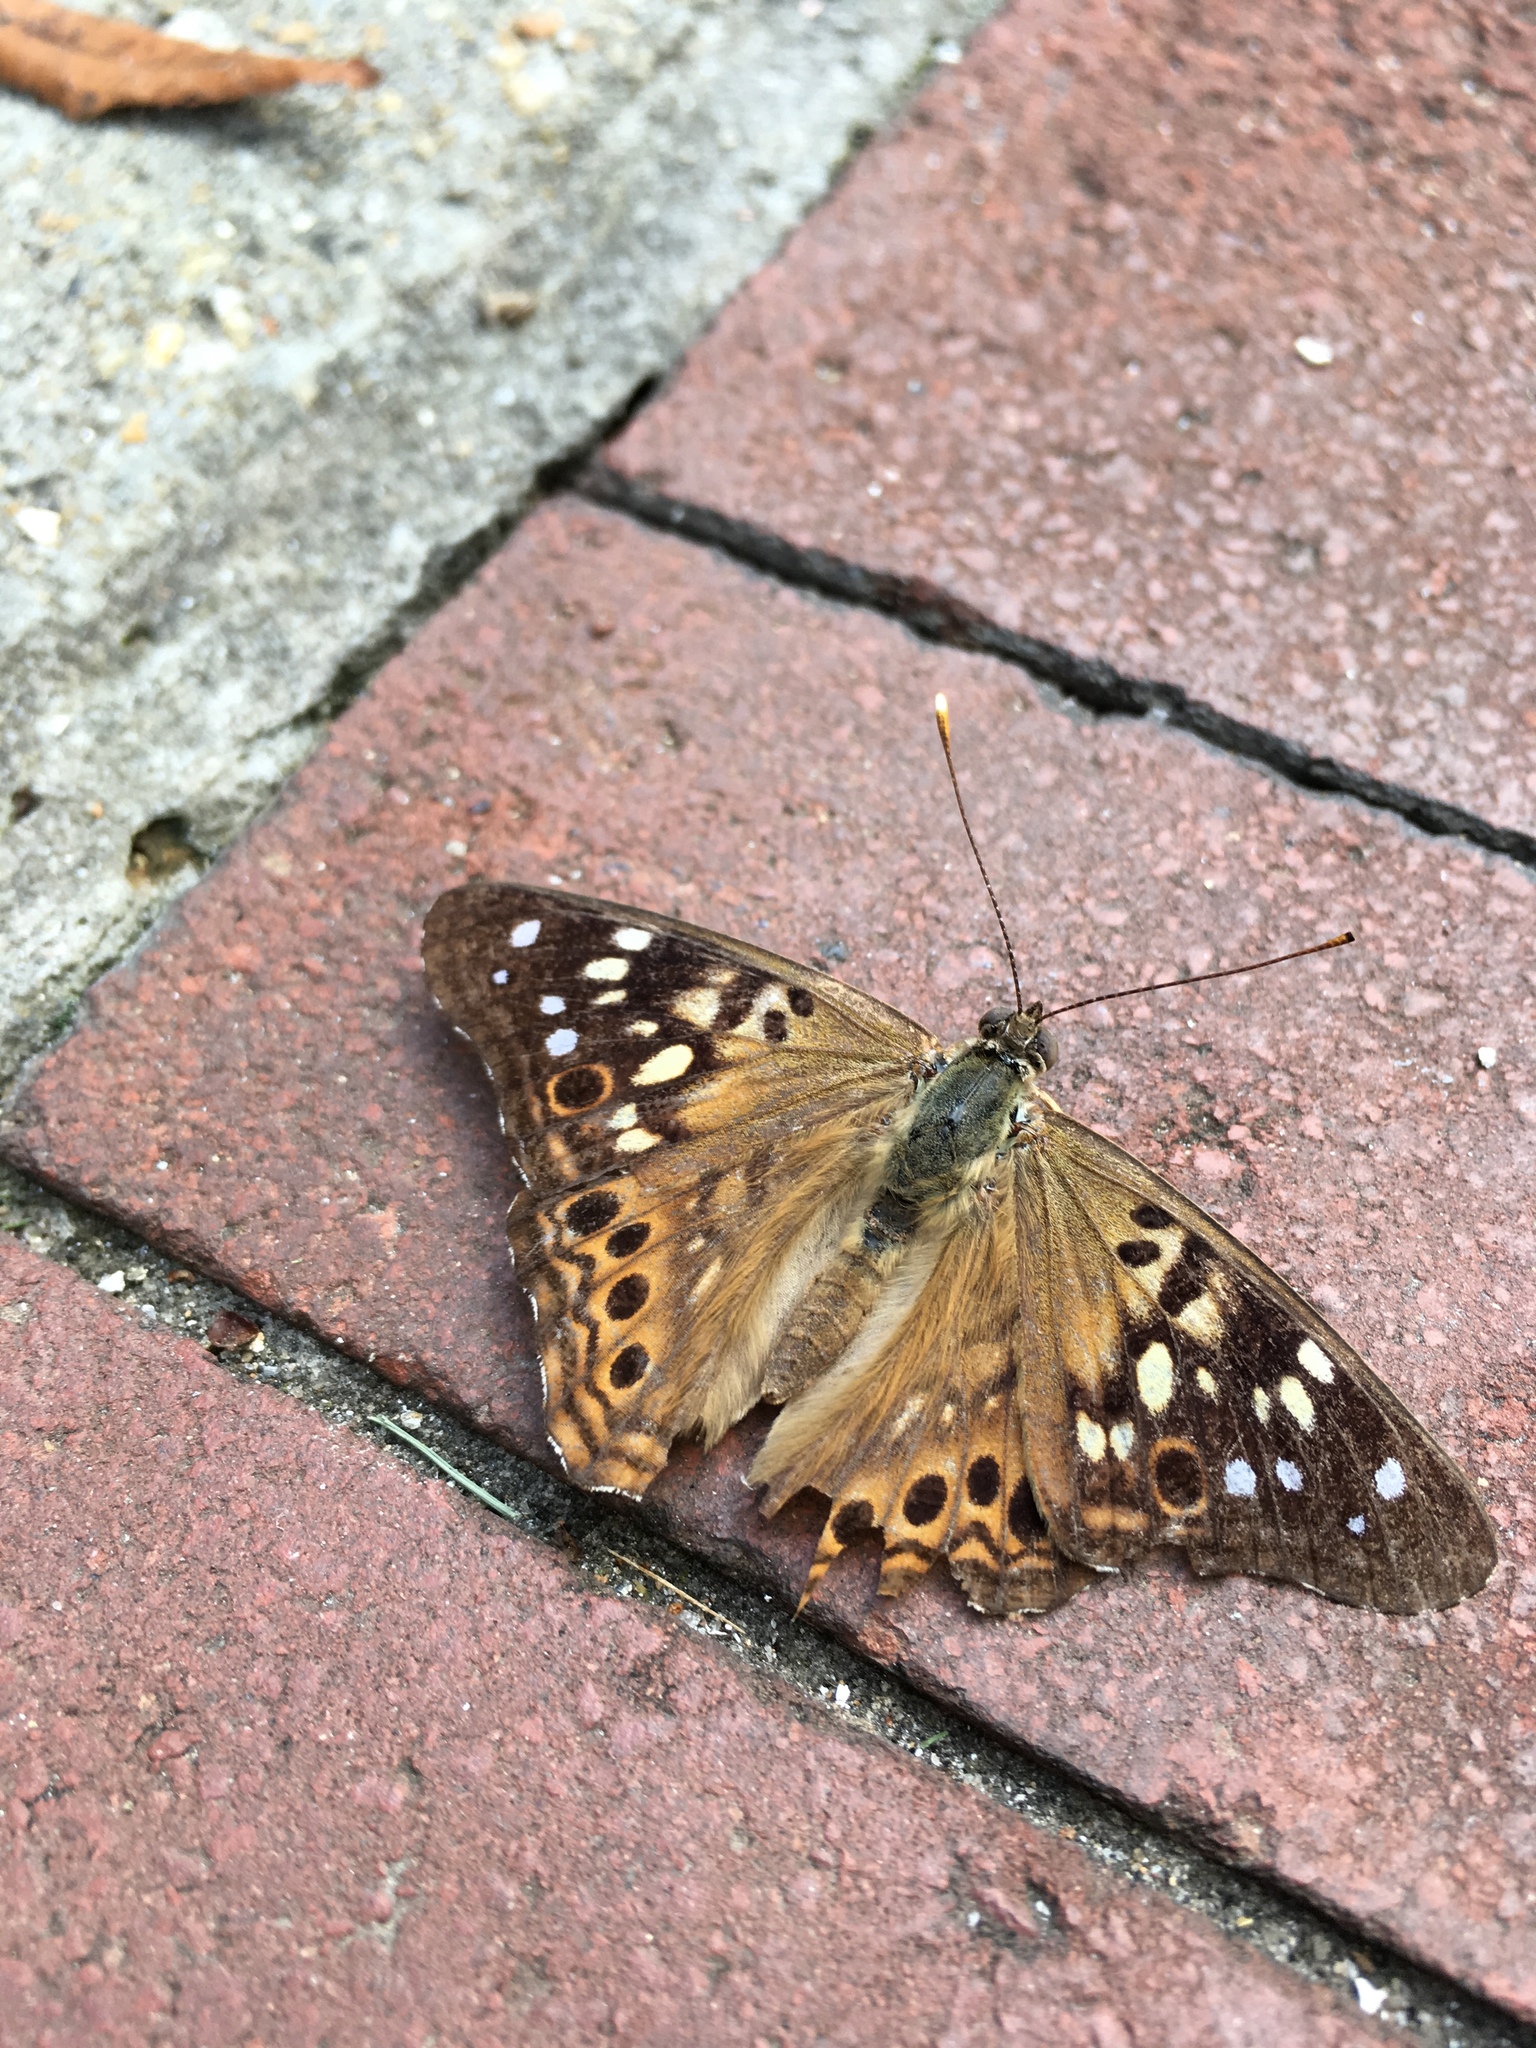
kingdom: Animalia
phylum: Arthropoda
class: Insecta
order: Lepidoptera
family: Nymphalidae
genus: Asterocampa
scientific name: Asterocampa celtis
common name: Hackberry emperor
